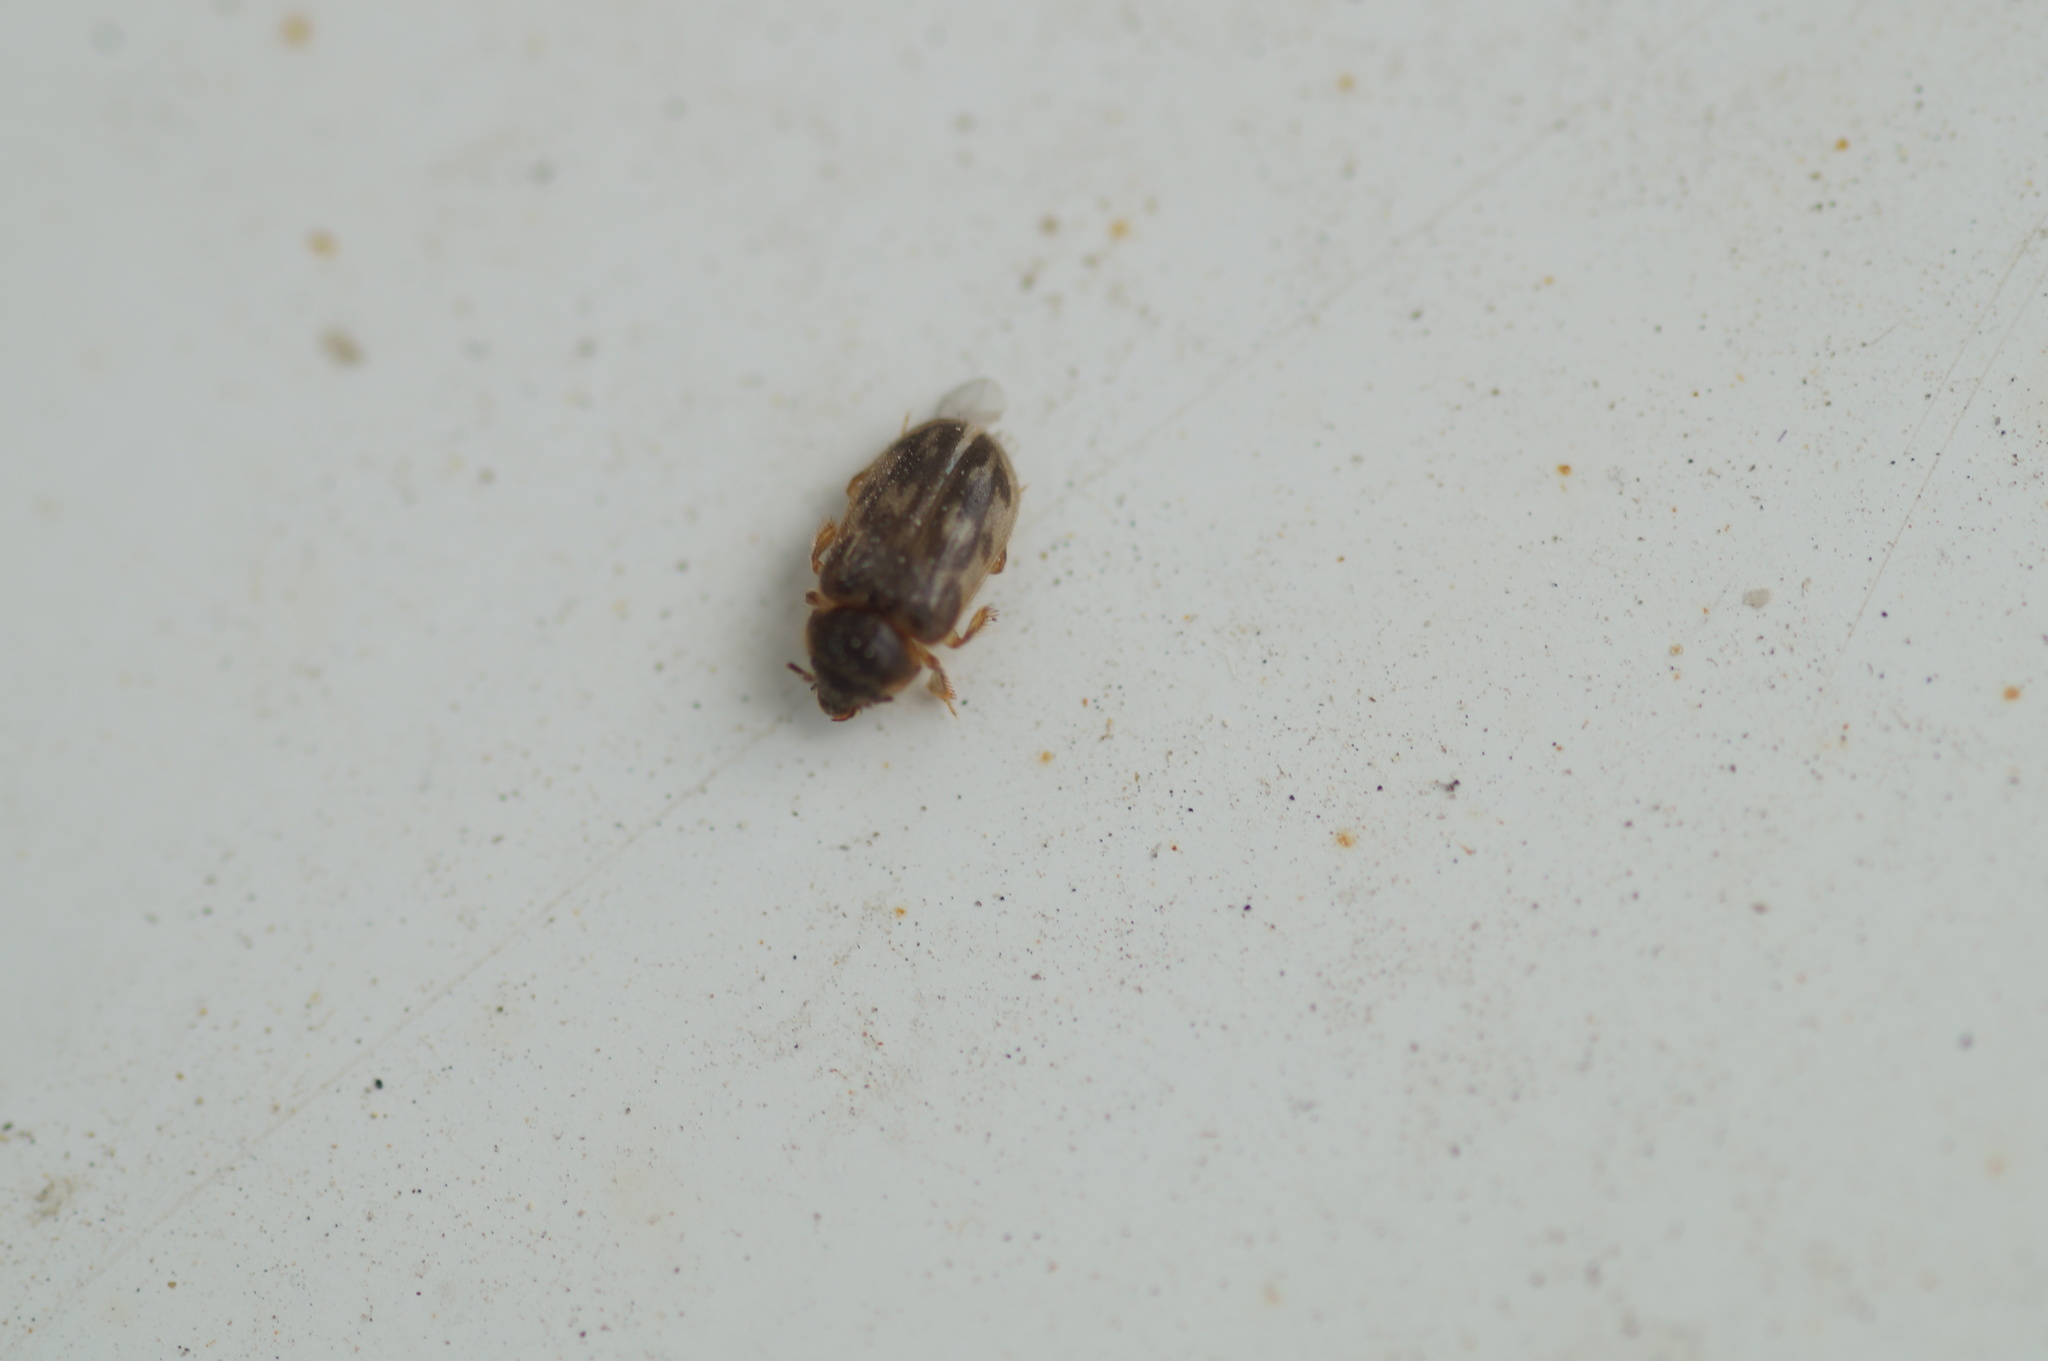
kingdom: Animalia
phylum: Arthropoda
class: Insecta
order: Coleoptera
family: Heteroceridae
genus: Heterocerus
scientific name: Heterocerus fenestratus
